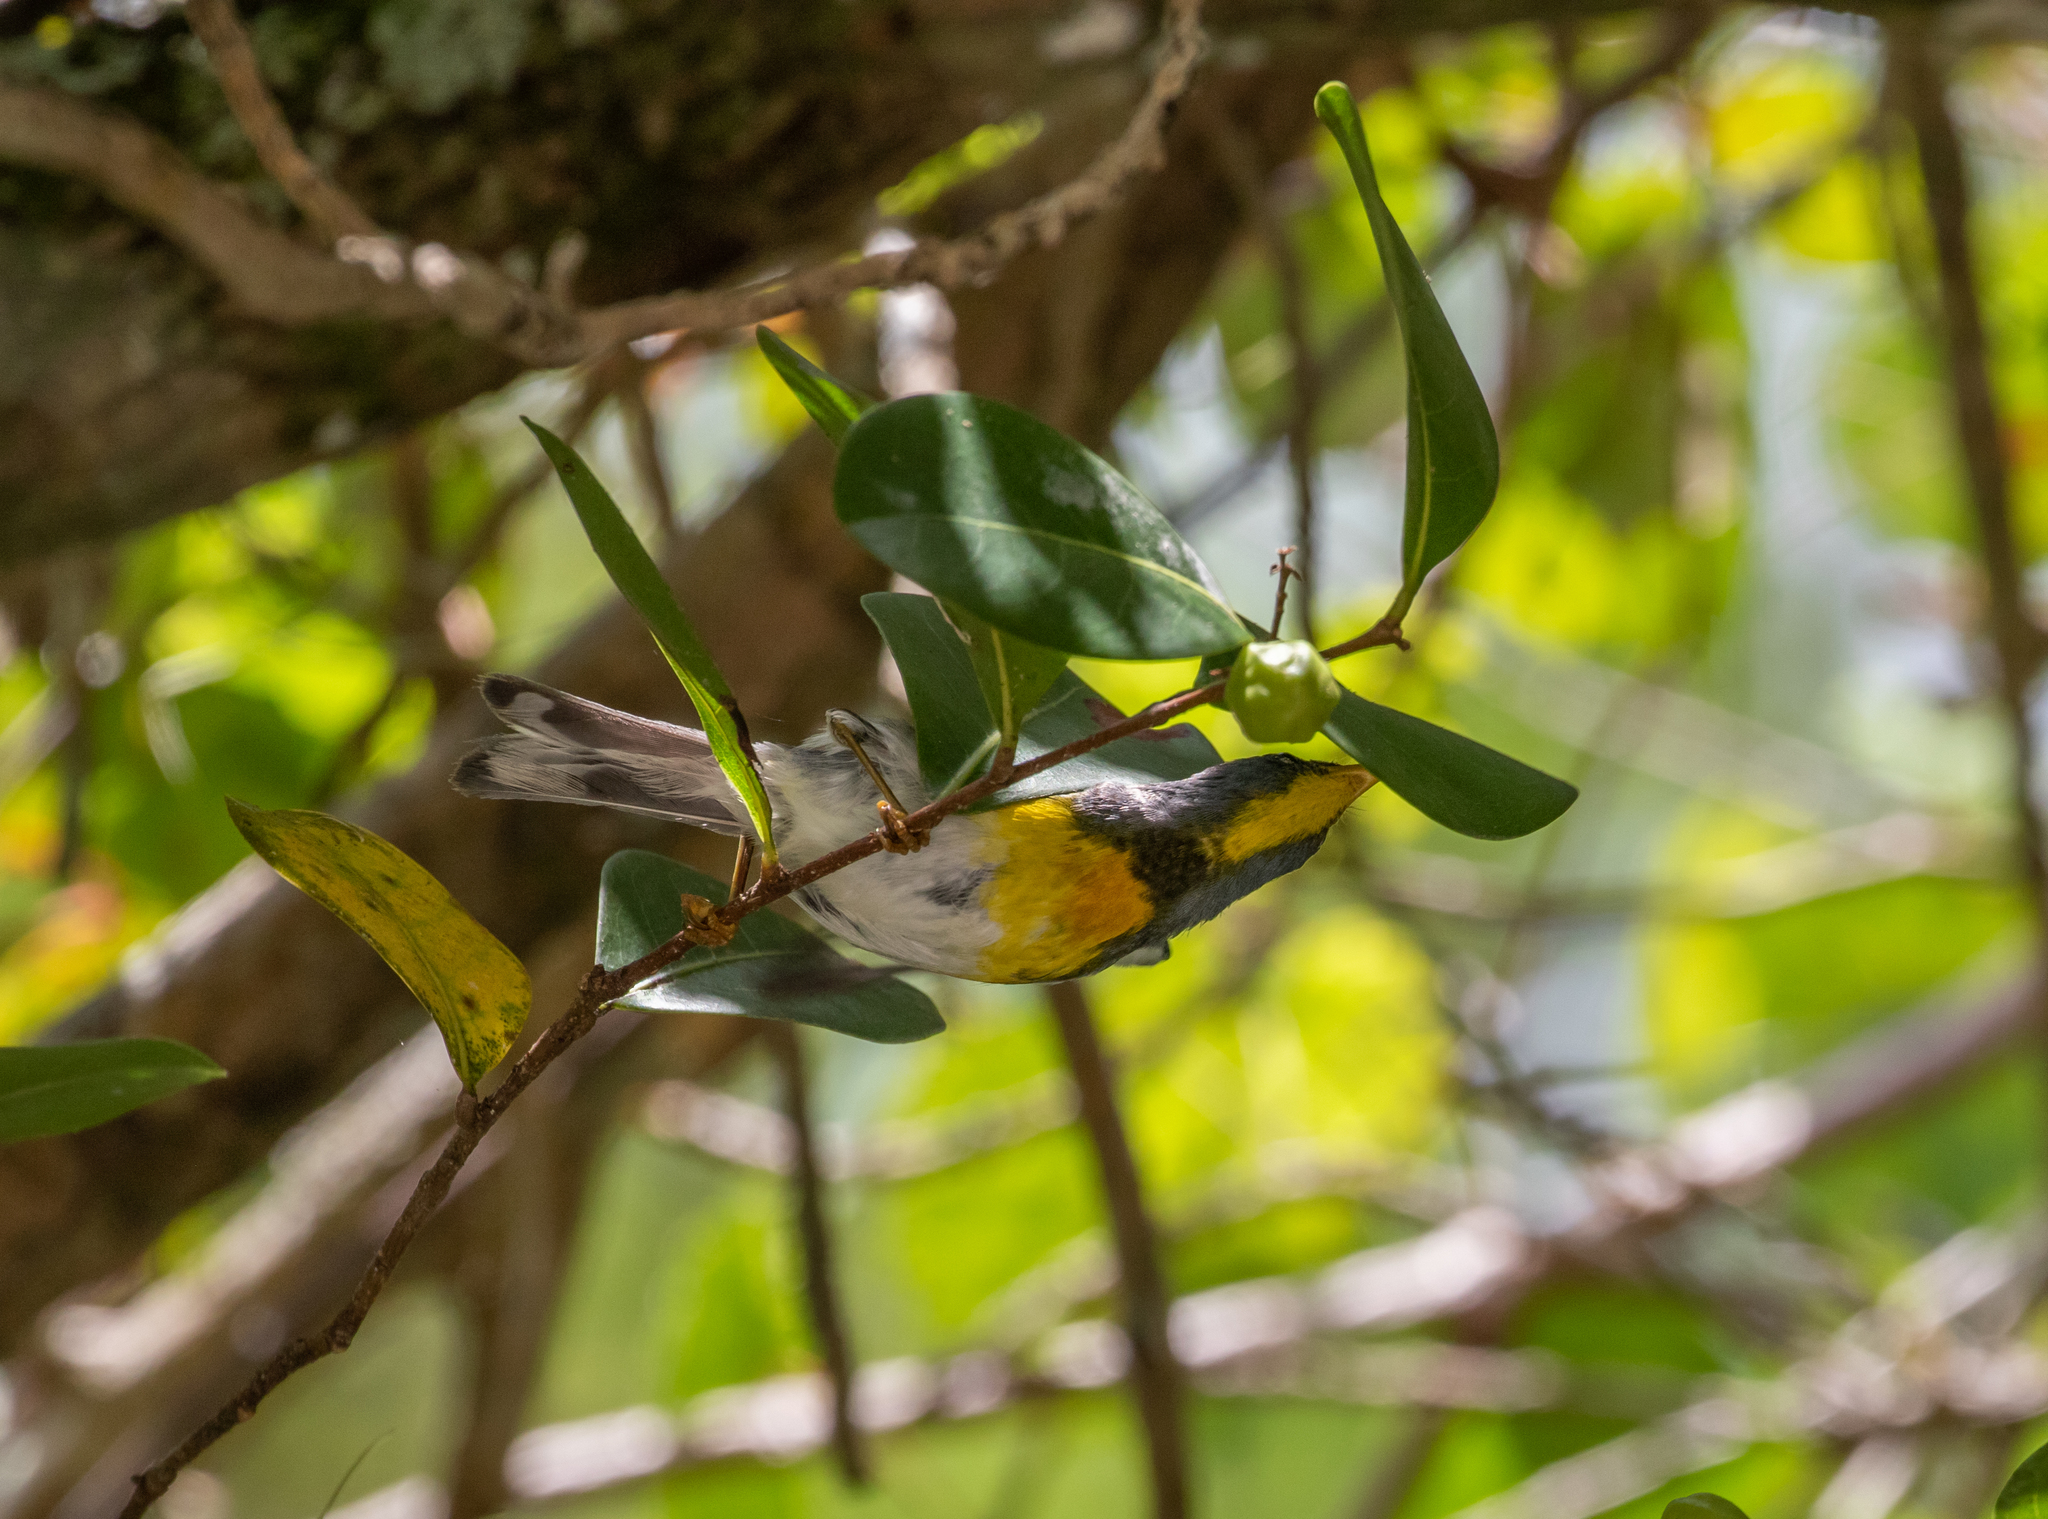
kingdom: Animalia
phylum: Chordata
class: Aves
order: Passeriformes
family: Parulidae
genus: Setophaga
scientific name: Setophaga americana
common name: Northern parula
